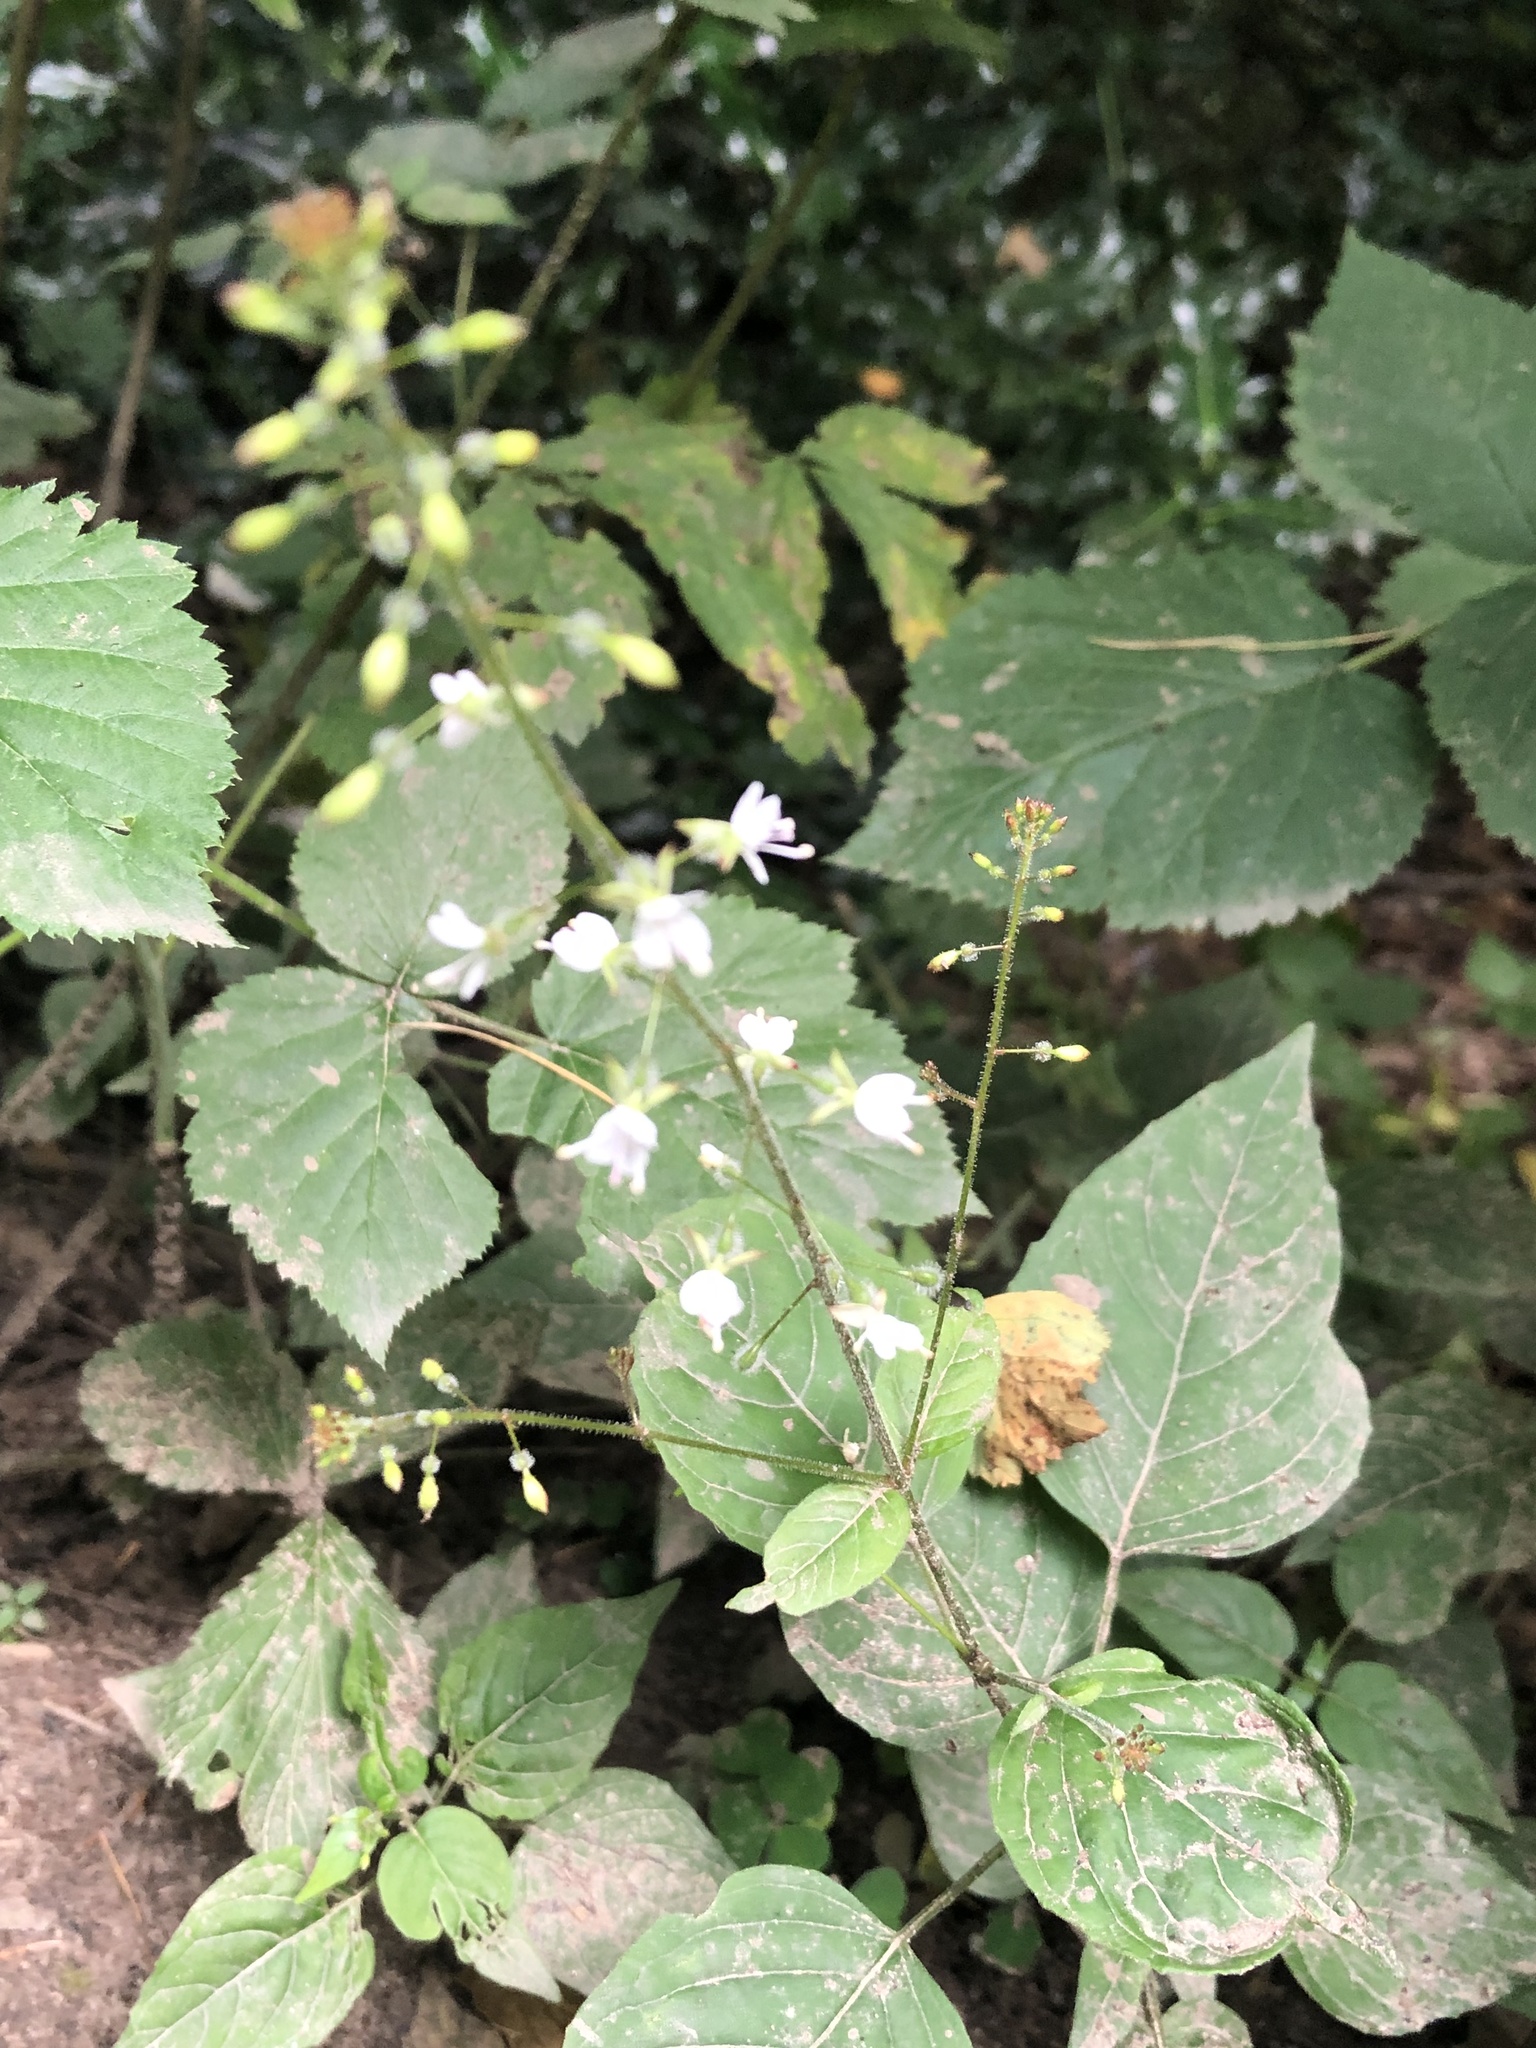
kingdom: Plantae
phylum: Tracheophyta
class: Magnoliopsida
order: Myrtales
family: Onagraceae
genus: Circaea
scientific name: Circaea lutetiana
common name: Enchanter's-nightshade
